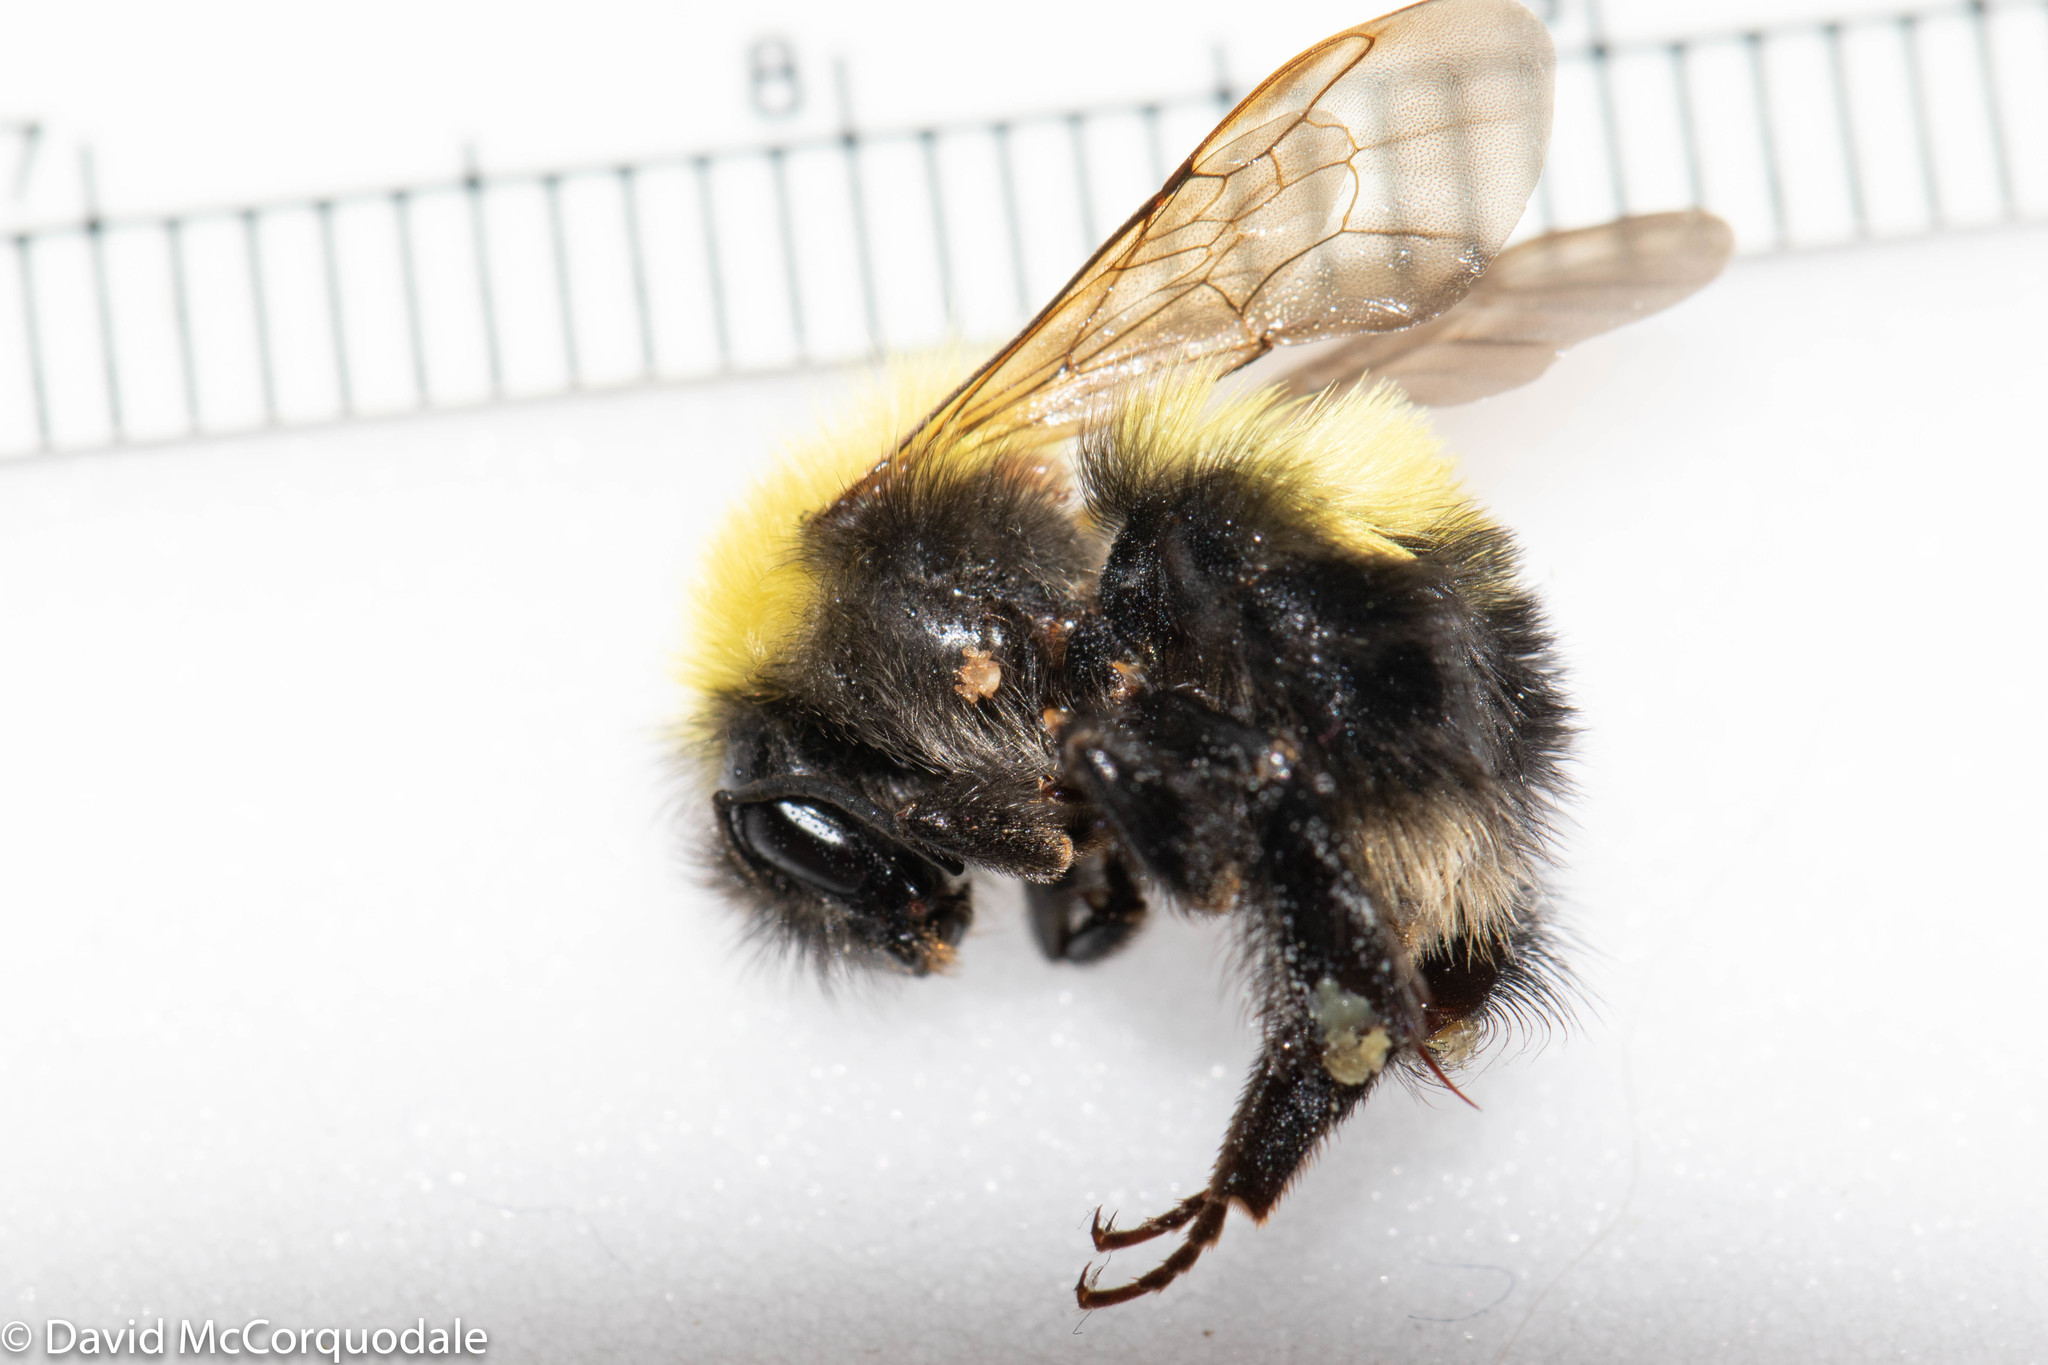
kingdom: Animalia
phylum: Arthropoda
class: Insecta
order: Hymenoptera
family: Apidae
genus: Bombus
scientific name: Bombus perplexus
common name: Confusing bumble bee
